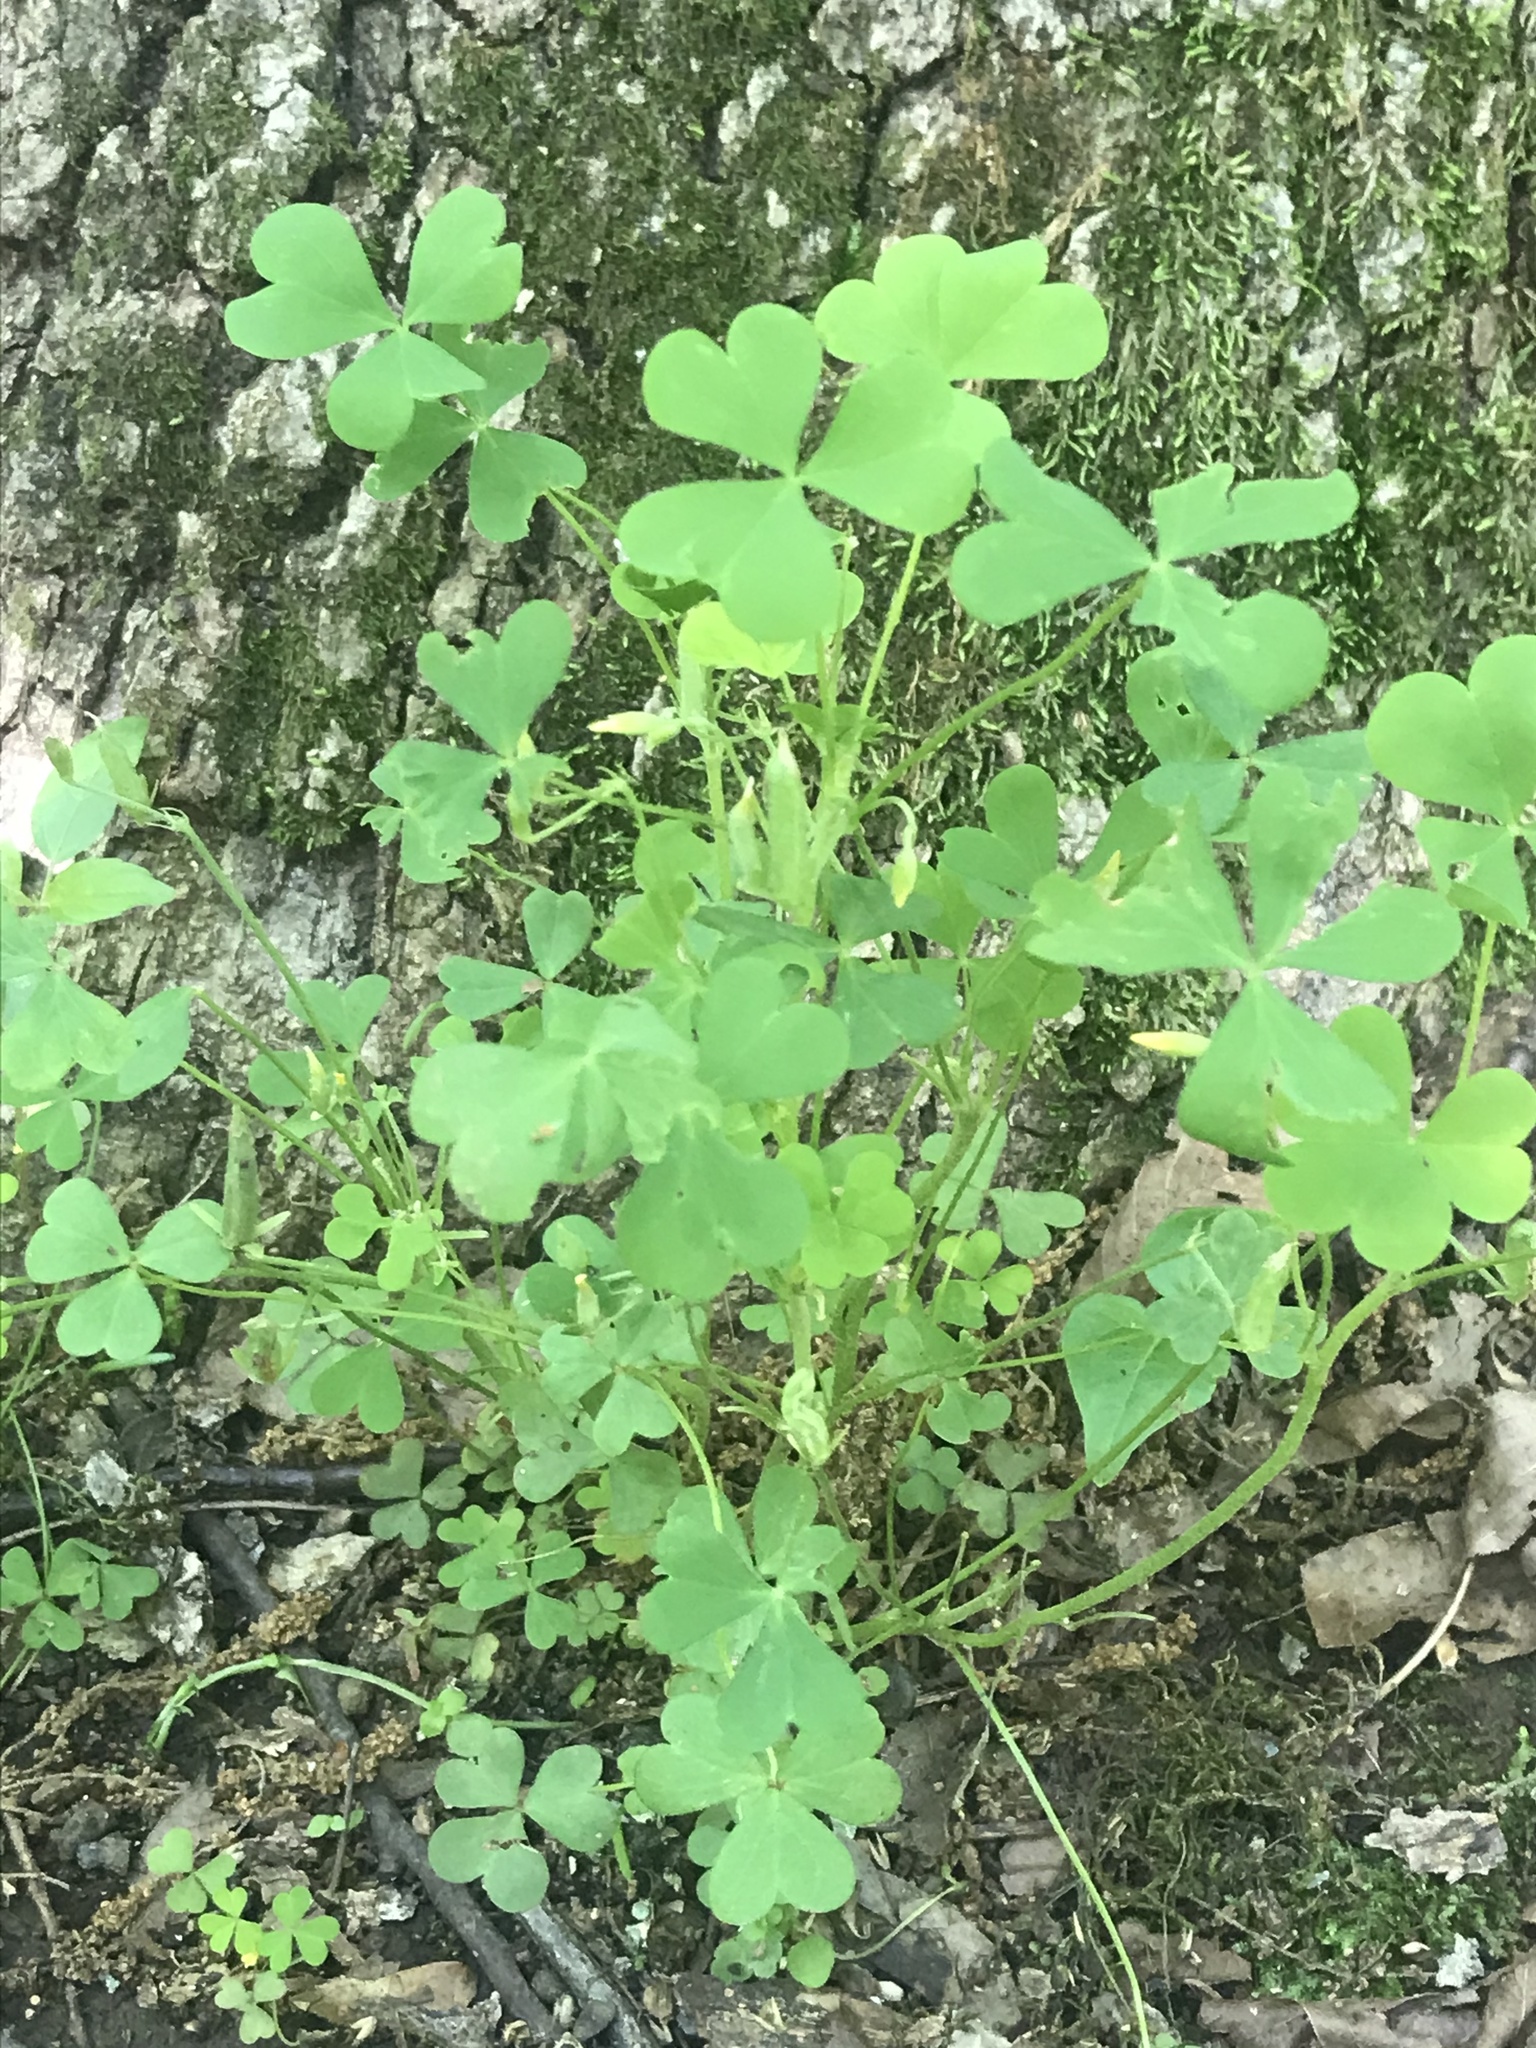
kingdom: Plantae
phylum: Tracheophyta
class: Magnoliopsida
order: Oxalidales
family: Oxalidaceae
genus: Oxalis
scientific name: Oxalis dillenii
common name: Sussex yellow-sorrel
